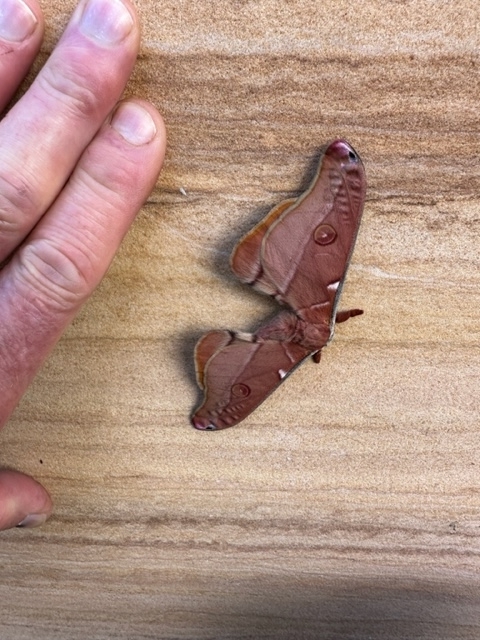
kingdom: Animalia
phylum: Arthropoda
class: Insecta
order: Lepidoptera
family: Saturniidae
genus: Opodiphthera
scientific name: Opodiphthera
